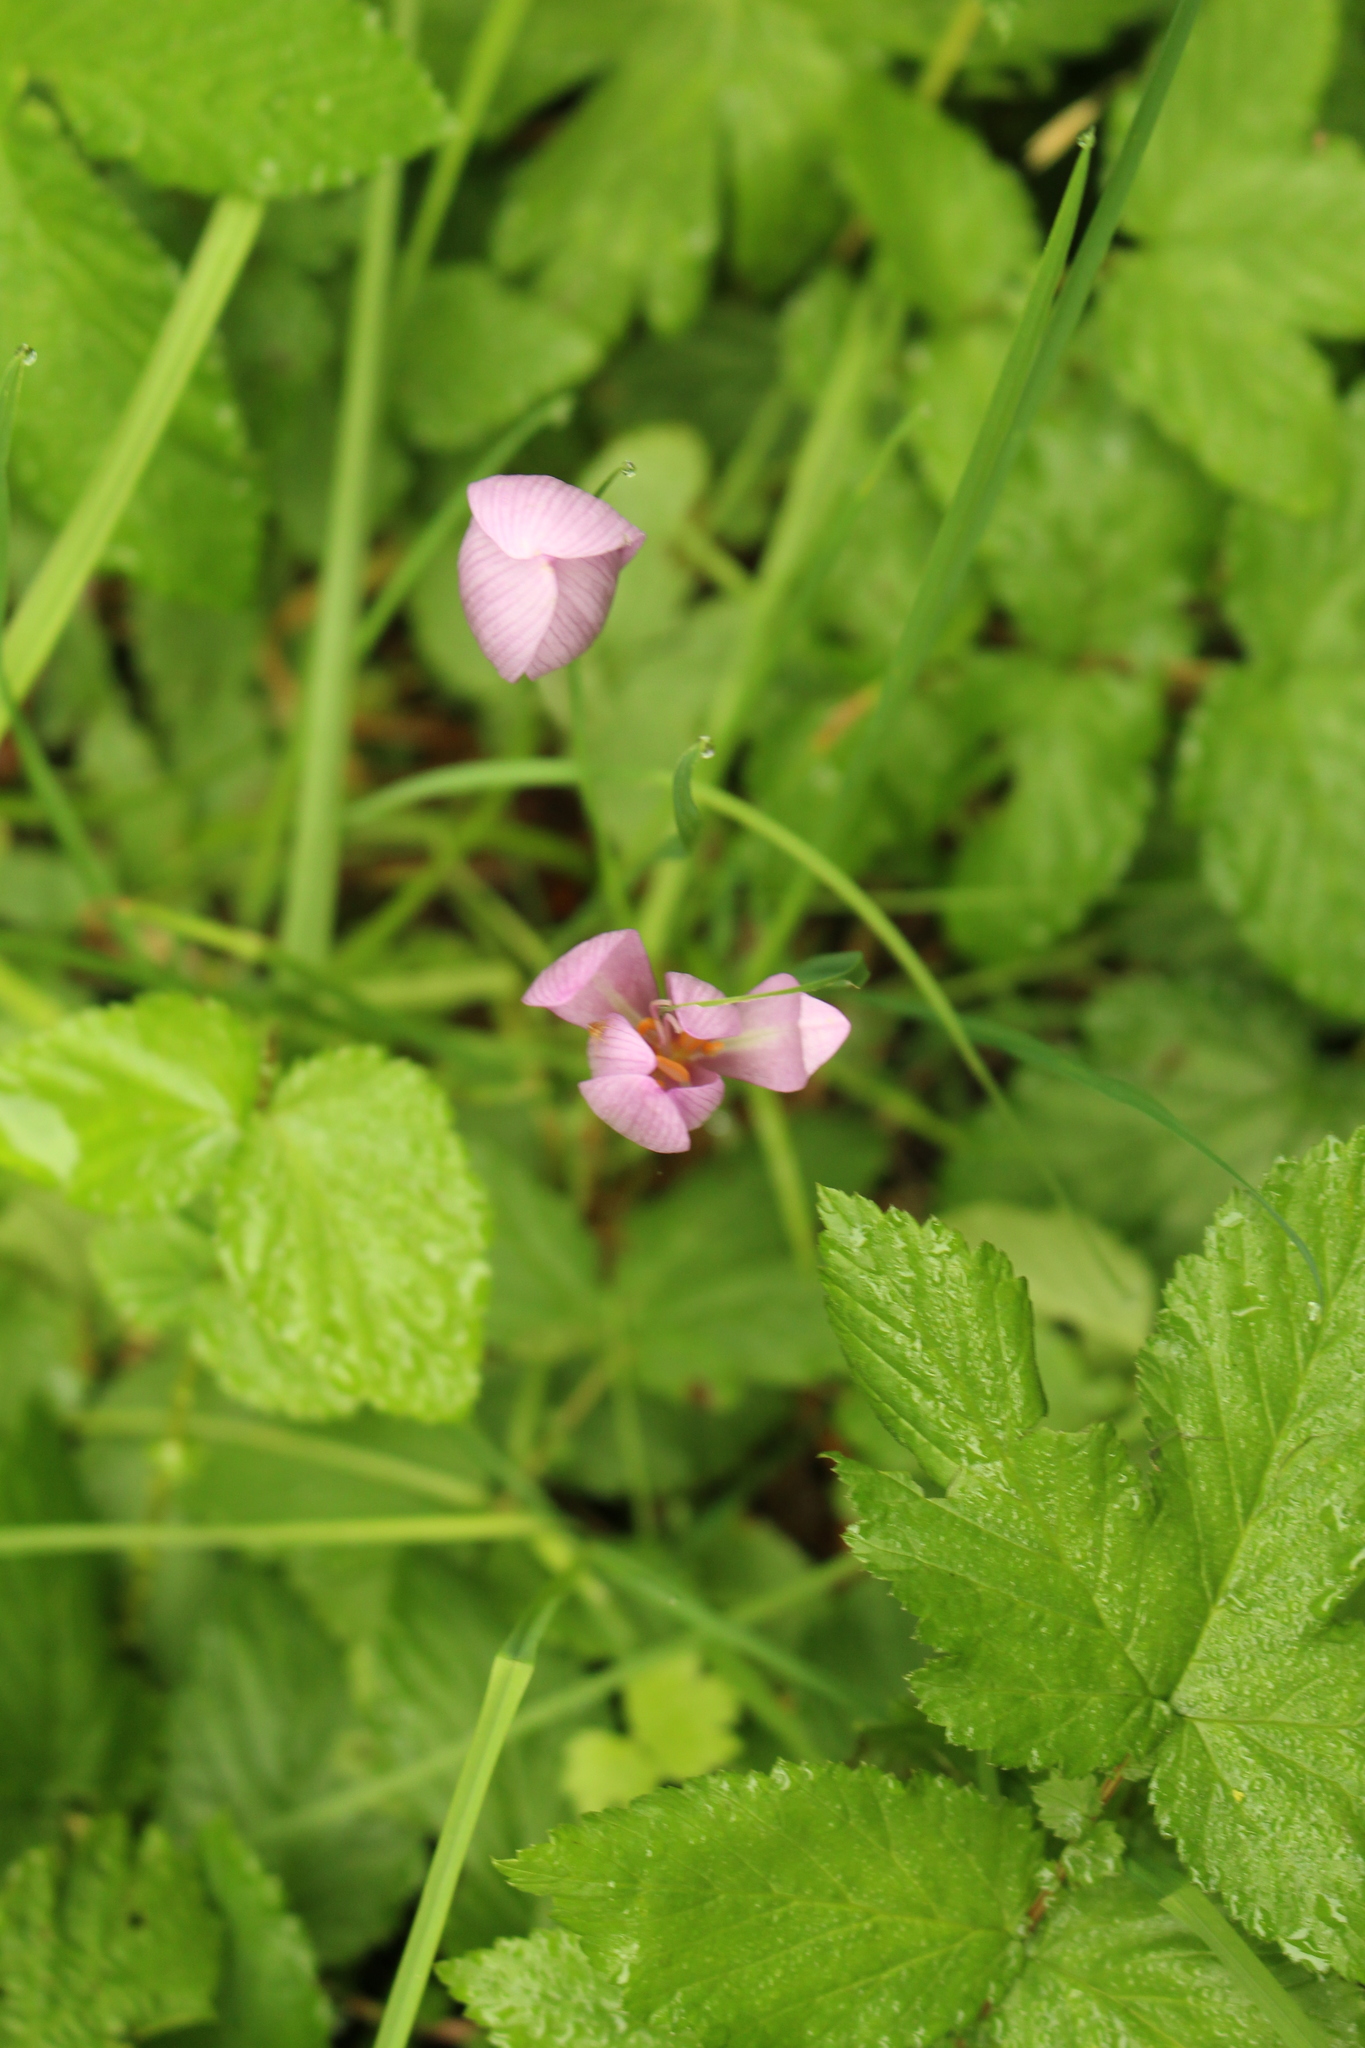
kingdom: Plantae
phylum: Tracheophyta
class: Liliopsida
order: Liliales
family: Colchicaceae
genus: Colchicum
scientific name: Colchicum autumnale
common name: Autumn crocus
